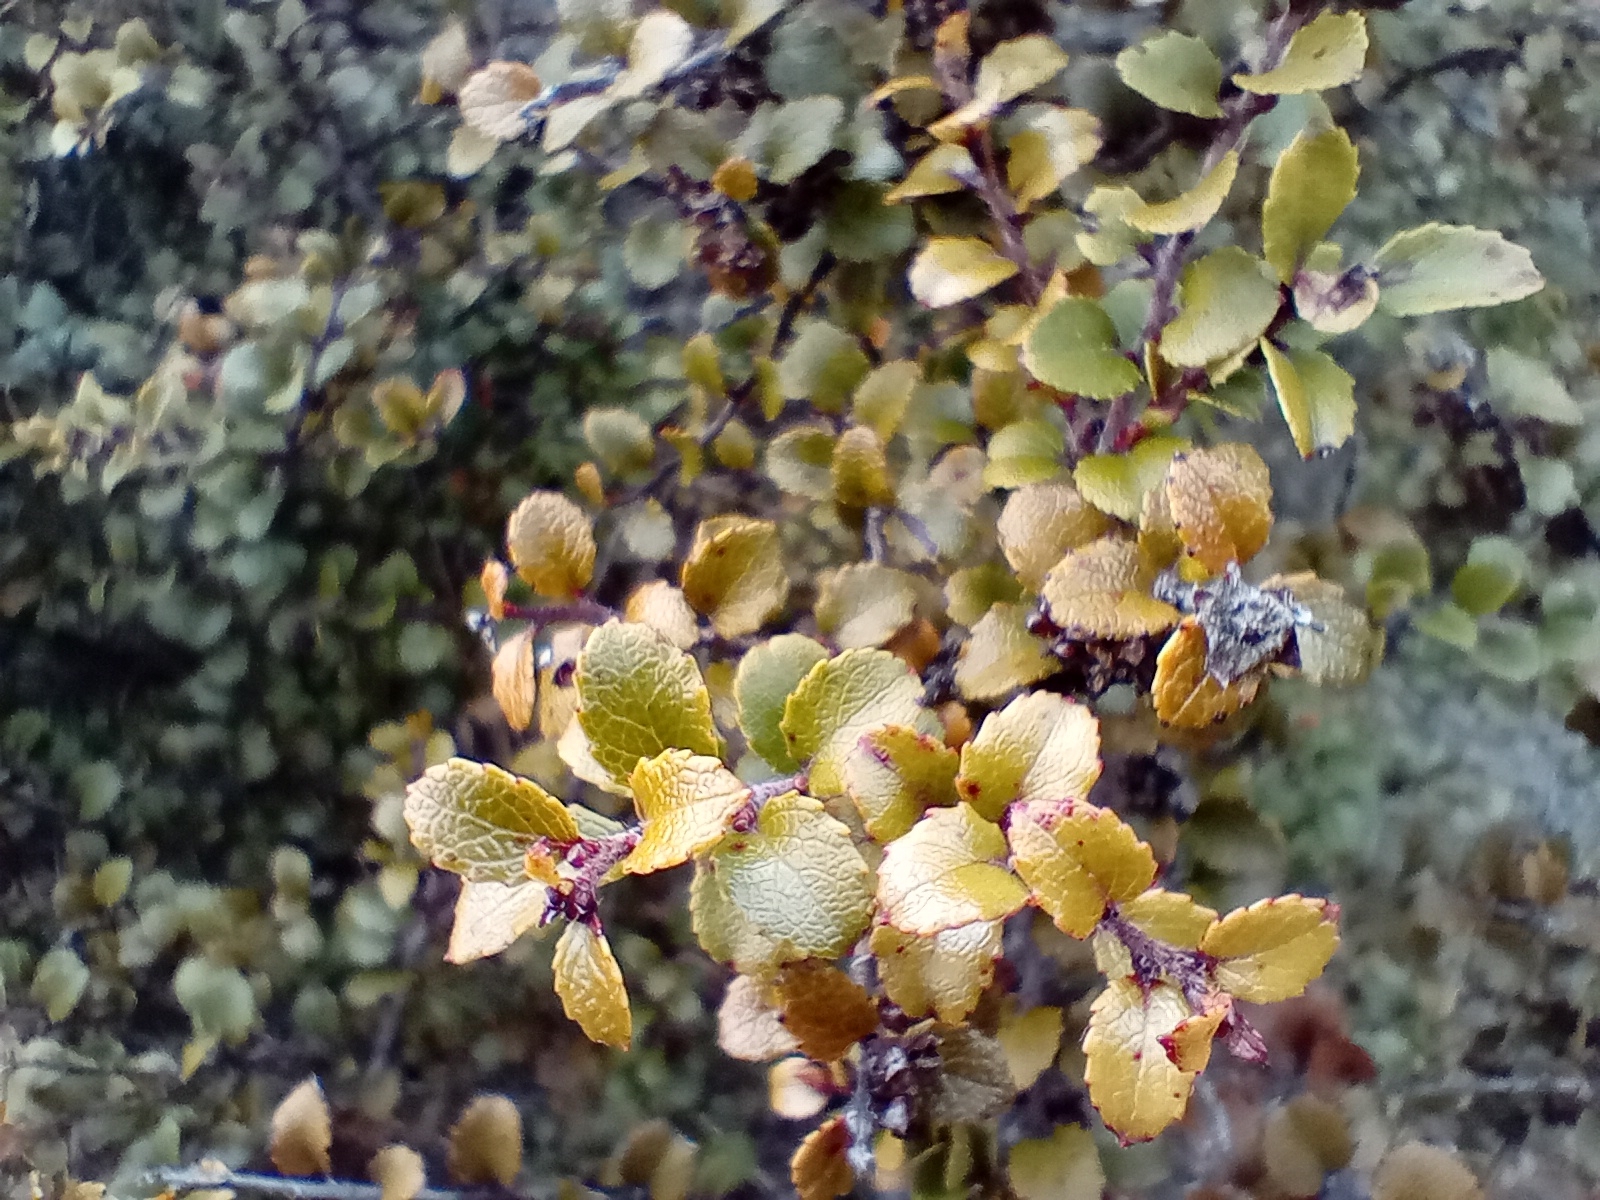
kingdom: Plantae
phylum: Tracheophyta
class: Magnoliopsida
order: Ericales
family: Ericaceae
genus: Gaultheria
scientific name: Gaultheria antipoda
